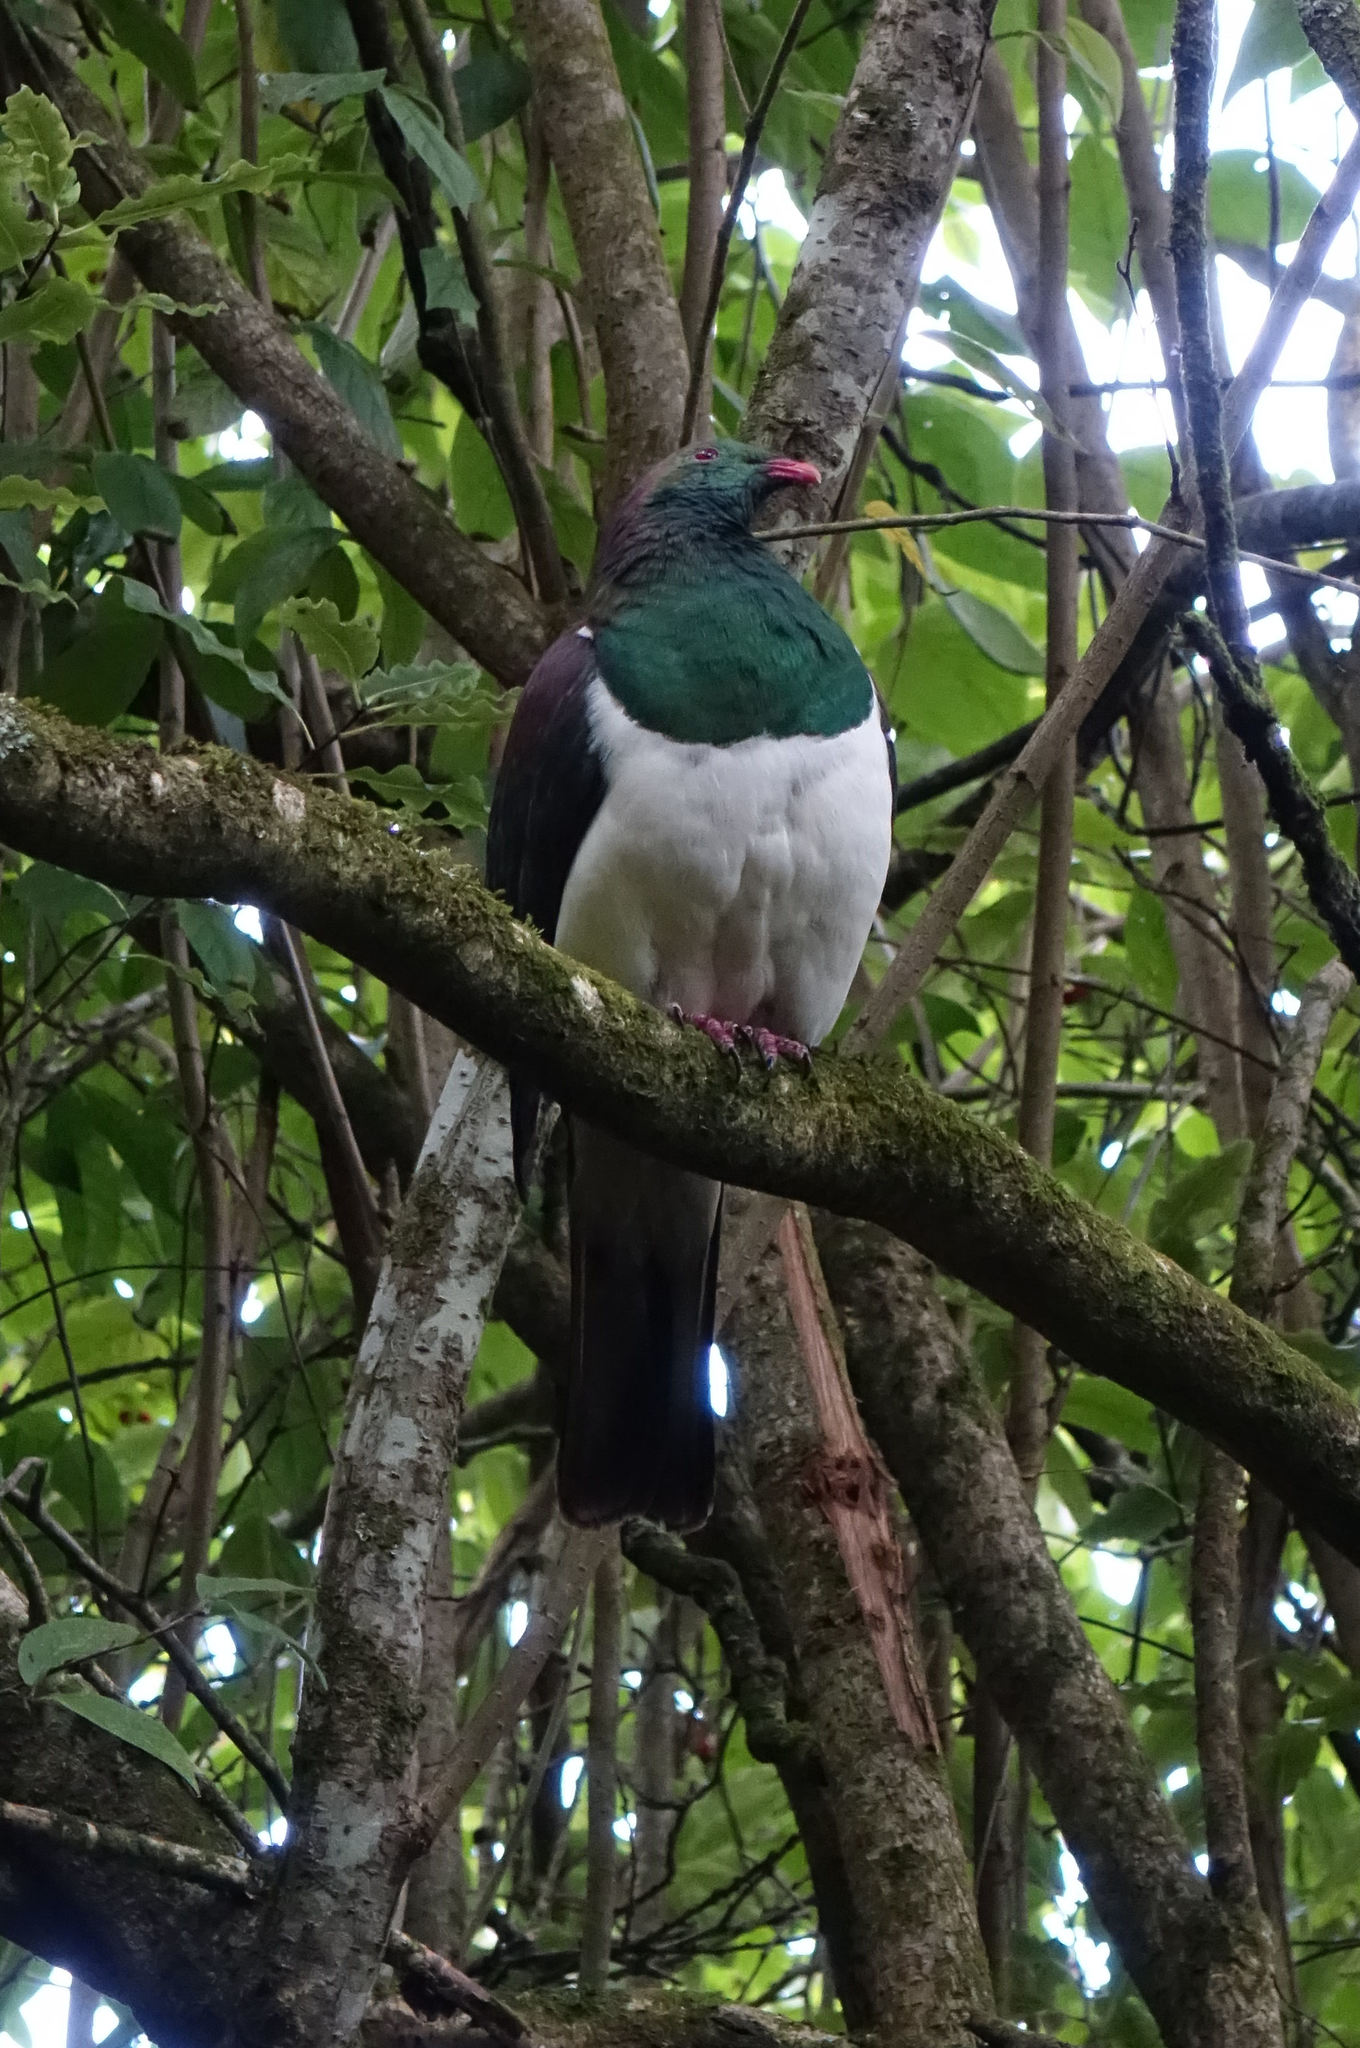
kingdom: Animalia
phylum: Chordata
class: Aves
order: Columbiformes
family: Columbidae
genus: Hemiphaga
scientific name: Hemiphaga novaeseelandiae
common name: New zealand pigeon
